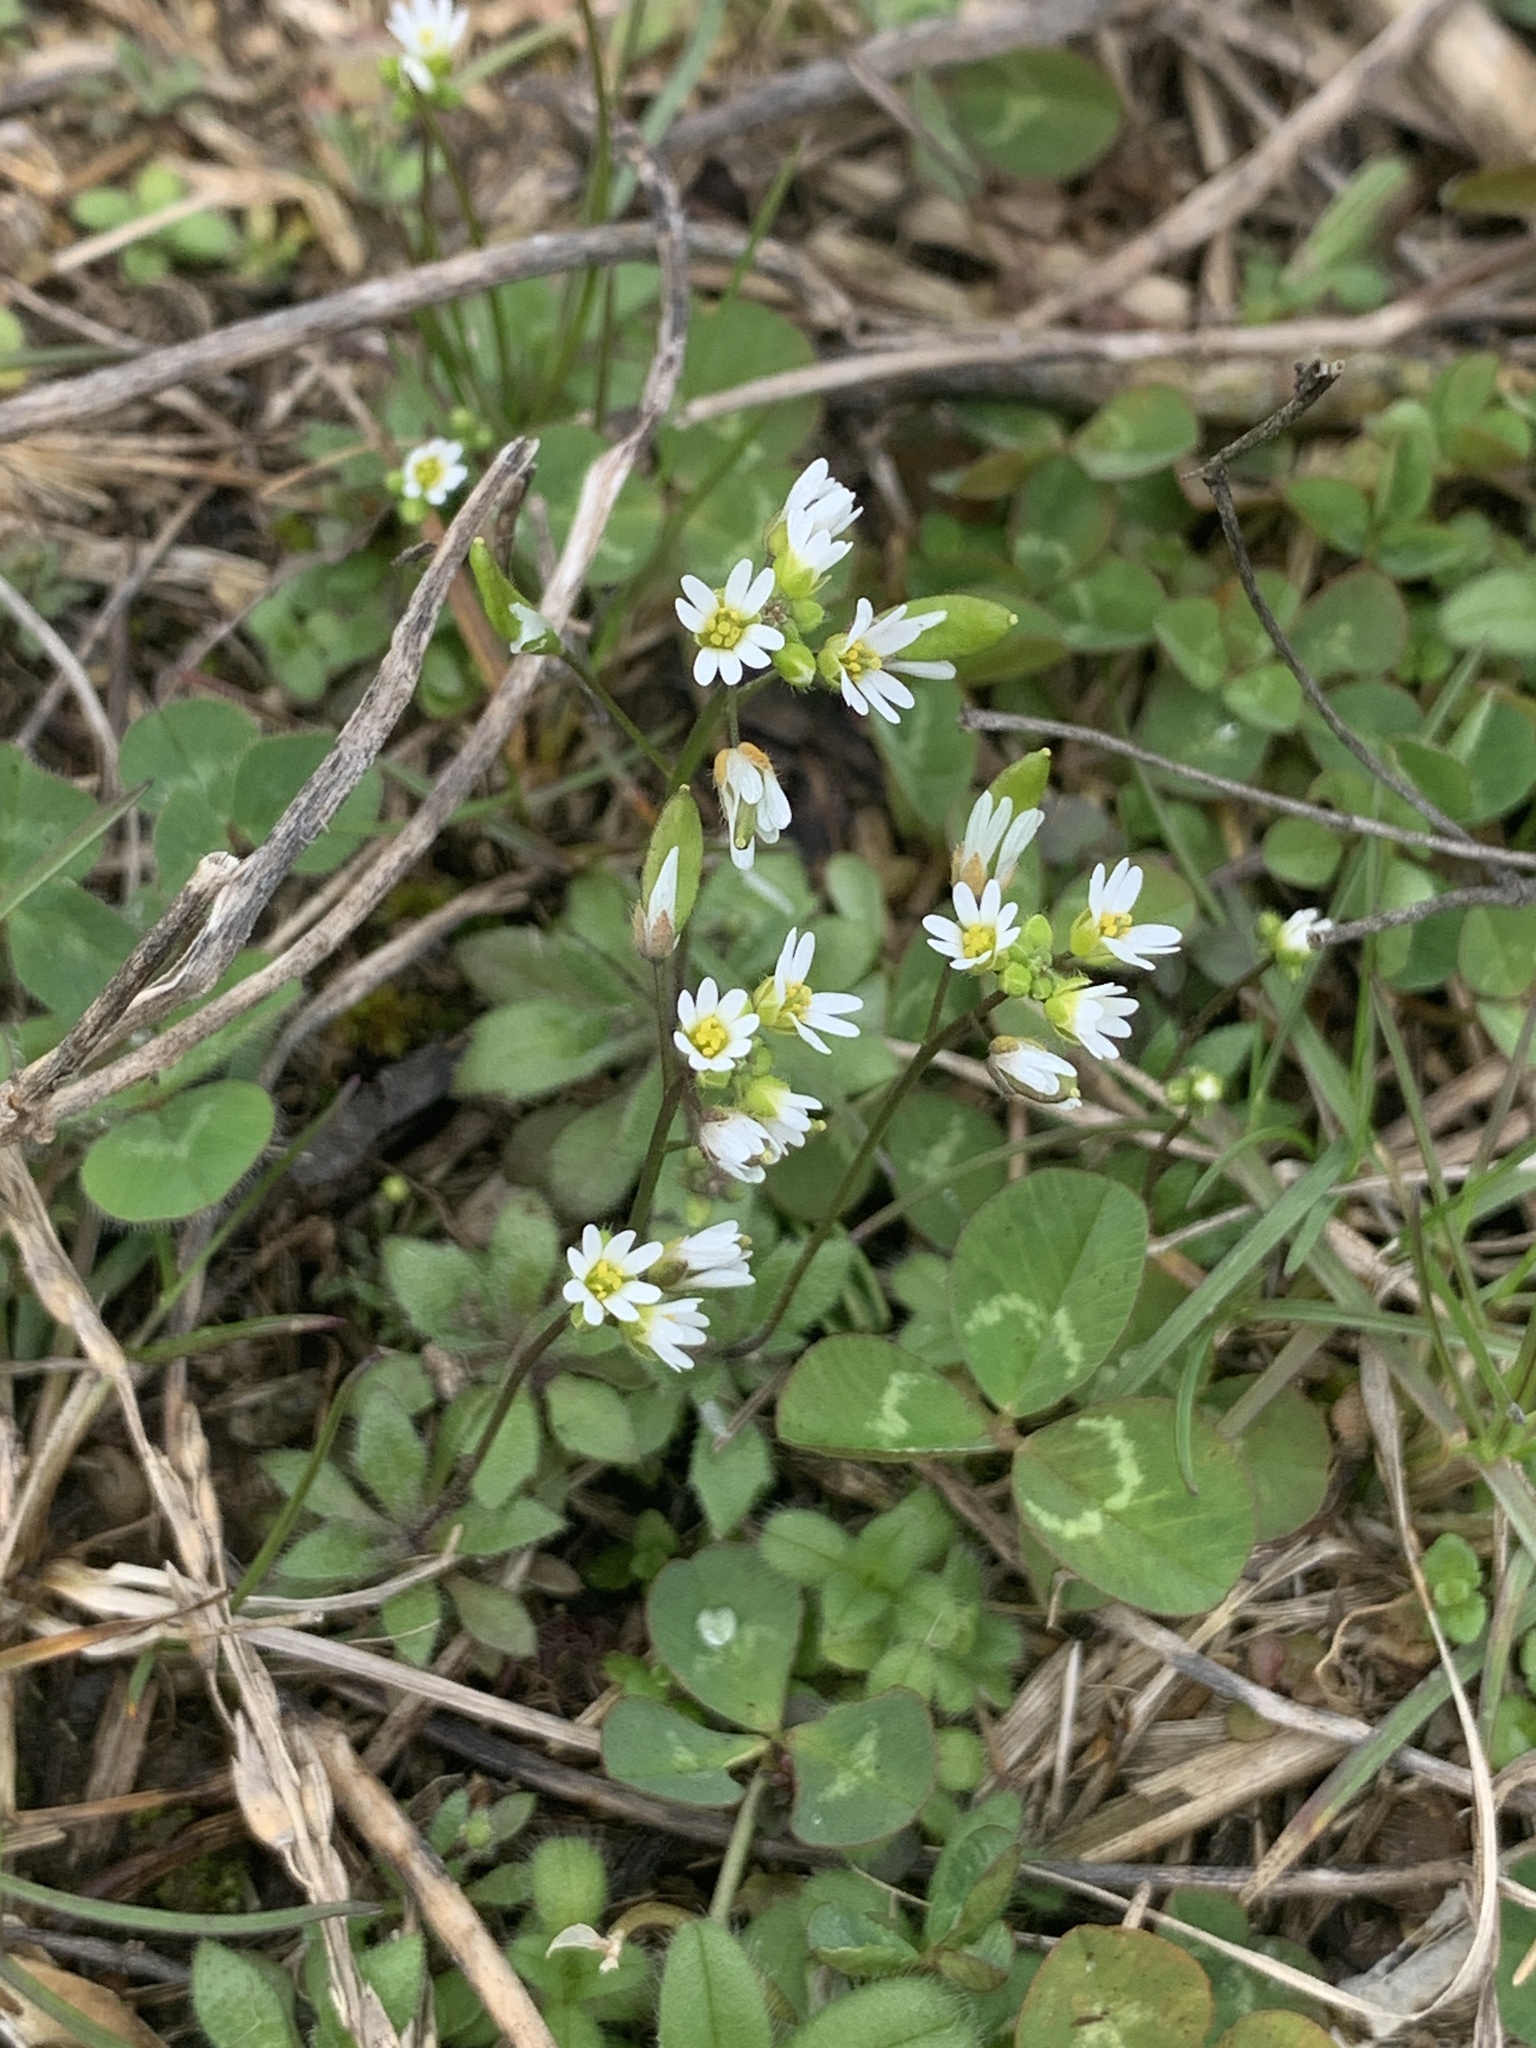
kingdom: Plantae
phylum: Tracheophyta
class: Magnoliopsida
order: Brassicales
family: Brassicaceae
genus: Draba
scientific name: Draba verna
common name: Spring draba
